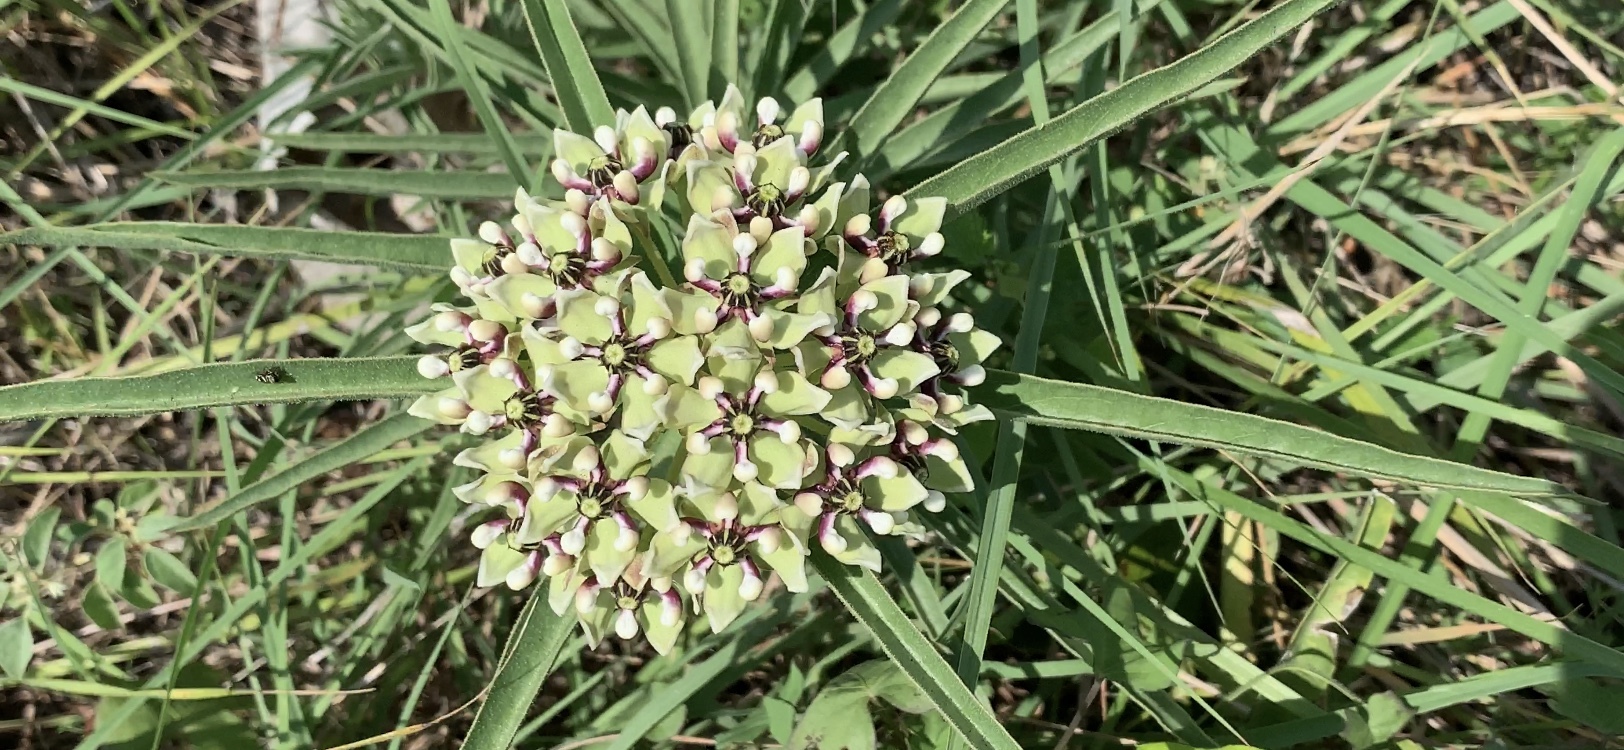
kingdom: Plantae
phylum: Tracheophyta
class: Magnoliopsida
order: Gentianales
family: Apocynaceae
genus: Asclepias
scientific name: Asclepias asperula
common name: Antelope horns
